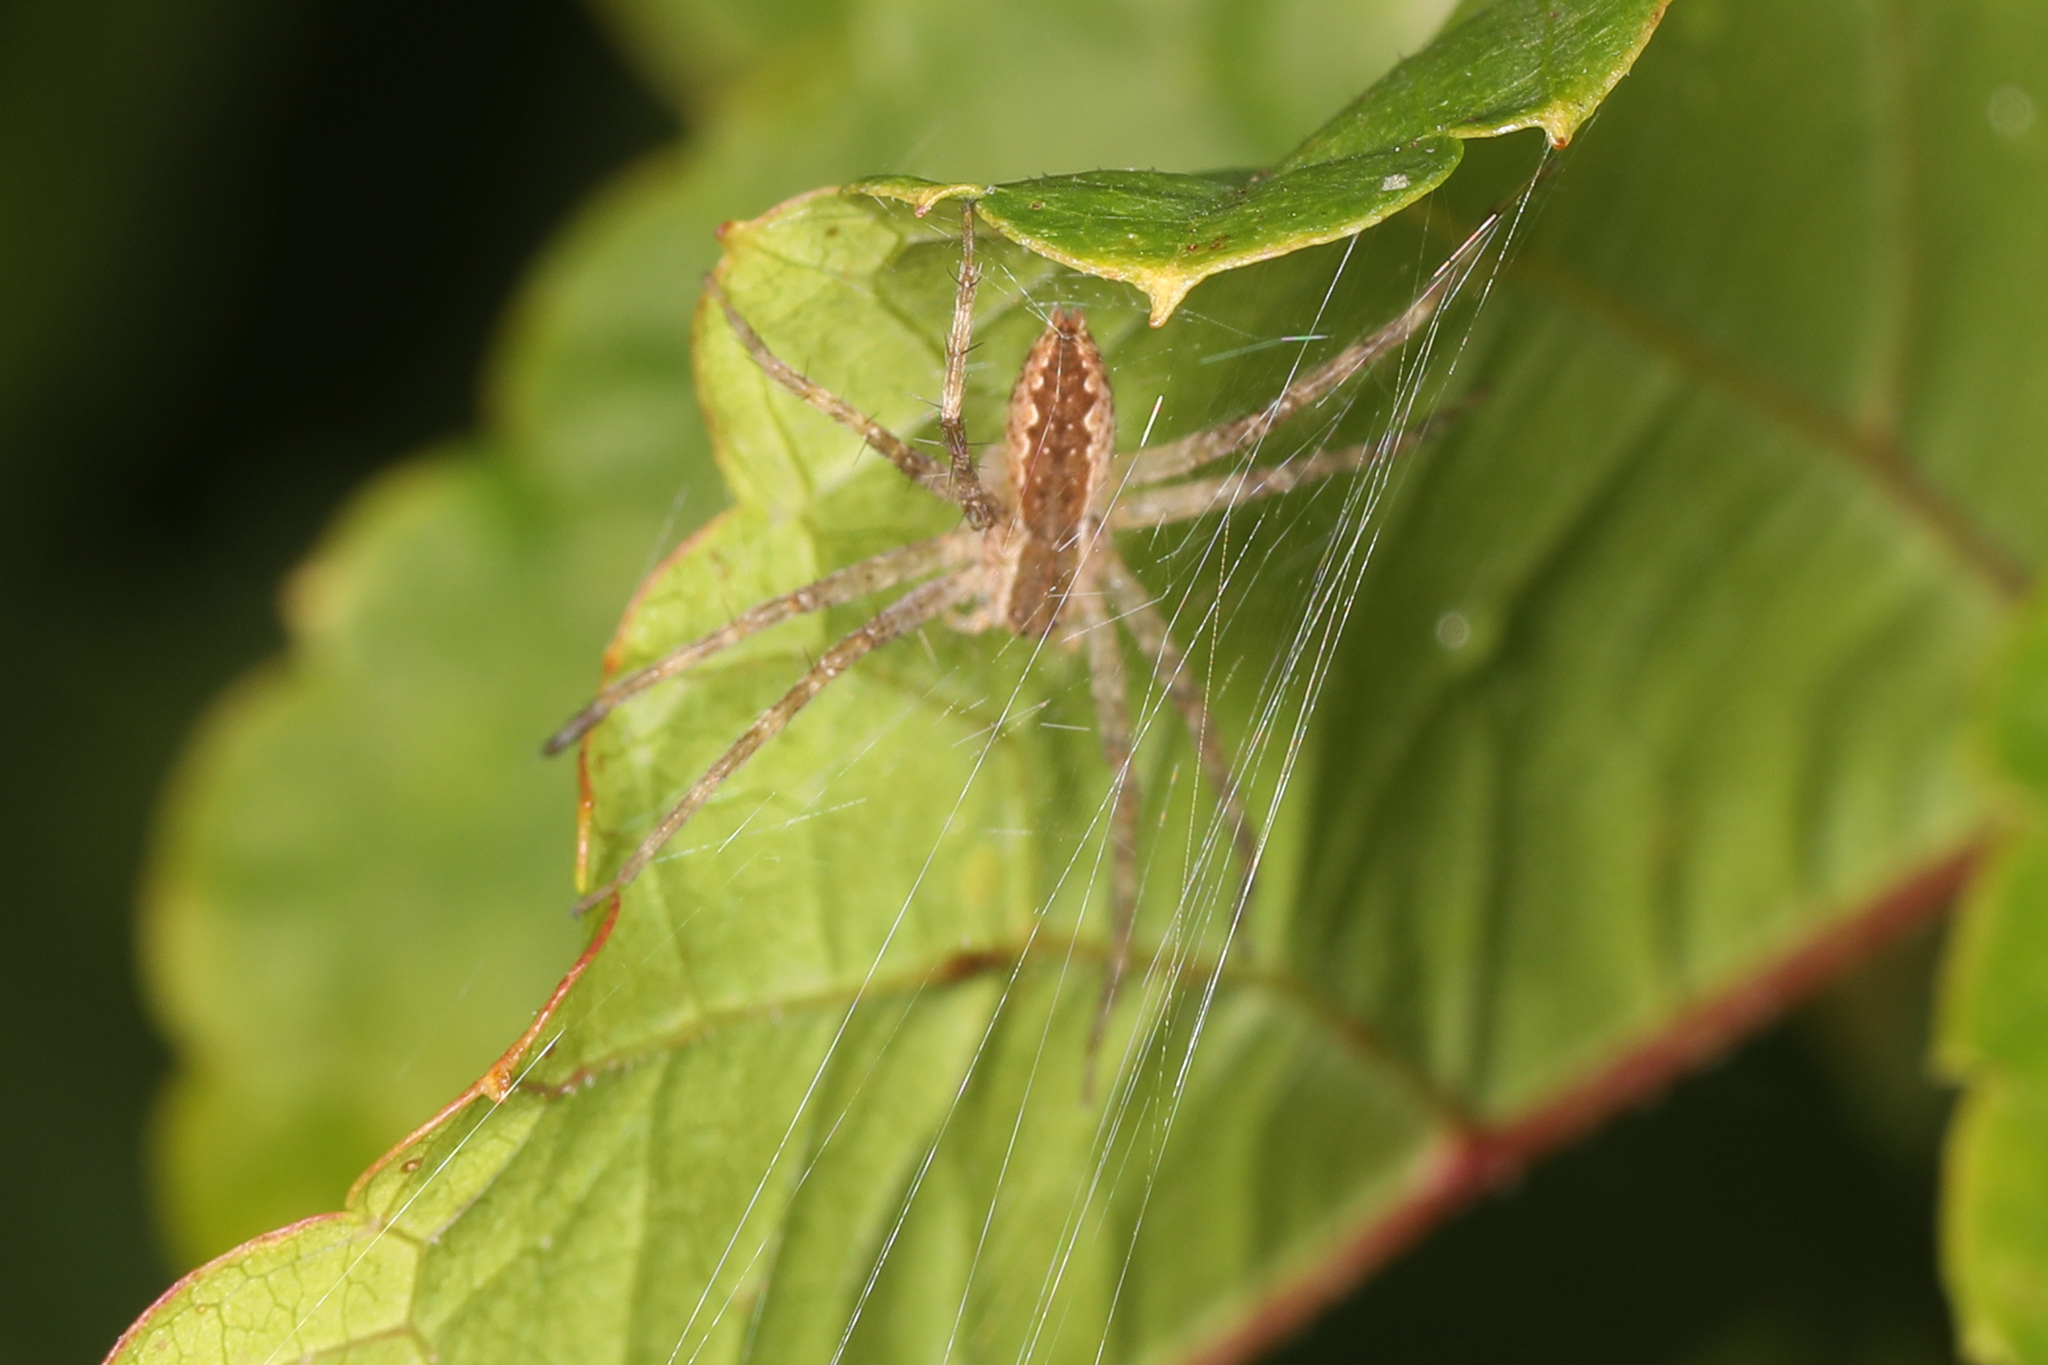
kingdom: Animalia
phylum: Arthropoda
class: Arachnida
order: Araneae
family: Pisauridae
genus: Pisaurina
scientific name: Pisaurina mira
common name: American nursery web spider
